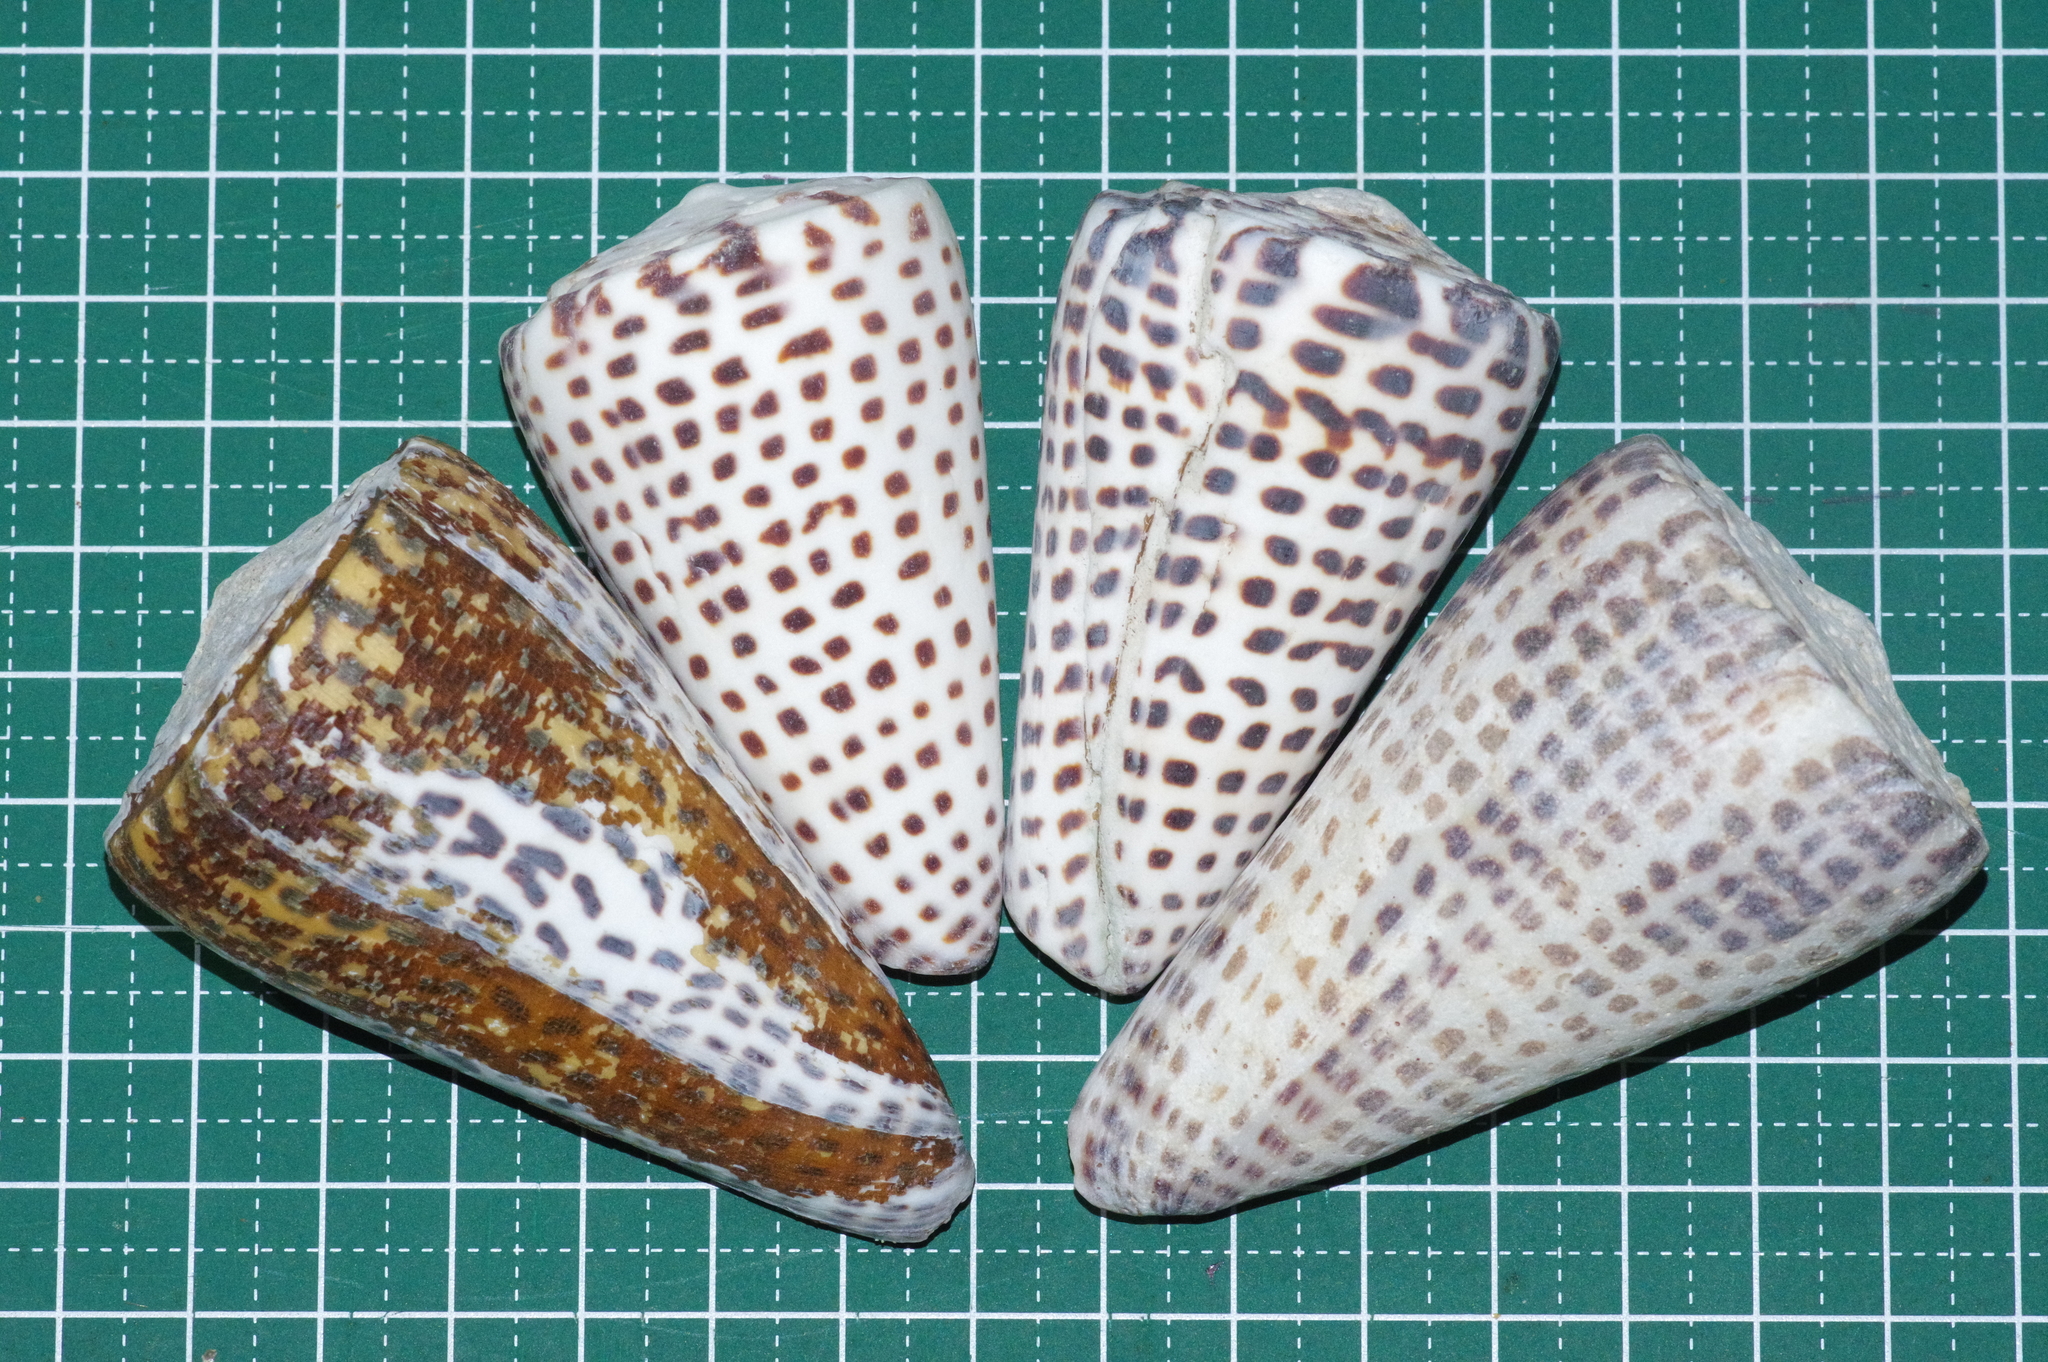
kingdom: Animalia
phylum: Mollusca
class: Gastropoda
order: Neogastropoda
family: Conidae
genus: Conus
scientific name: Conus litteratus
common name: Lettered cone
